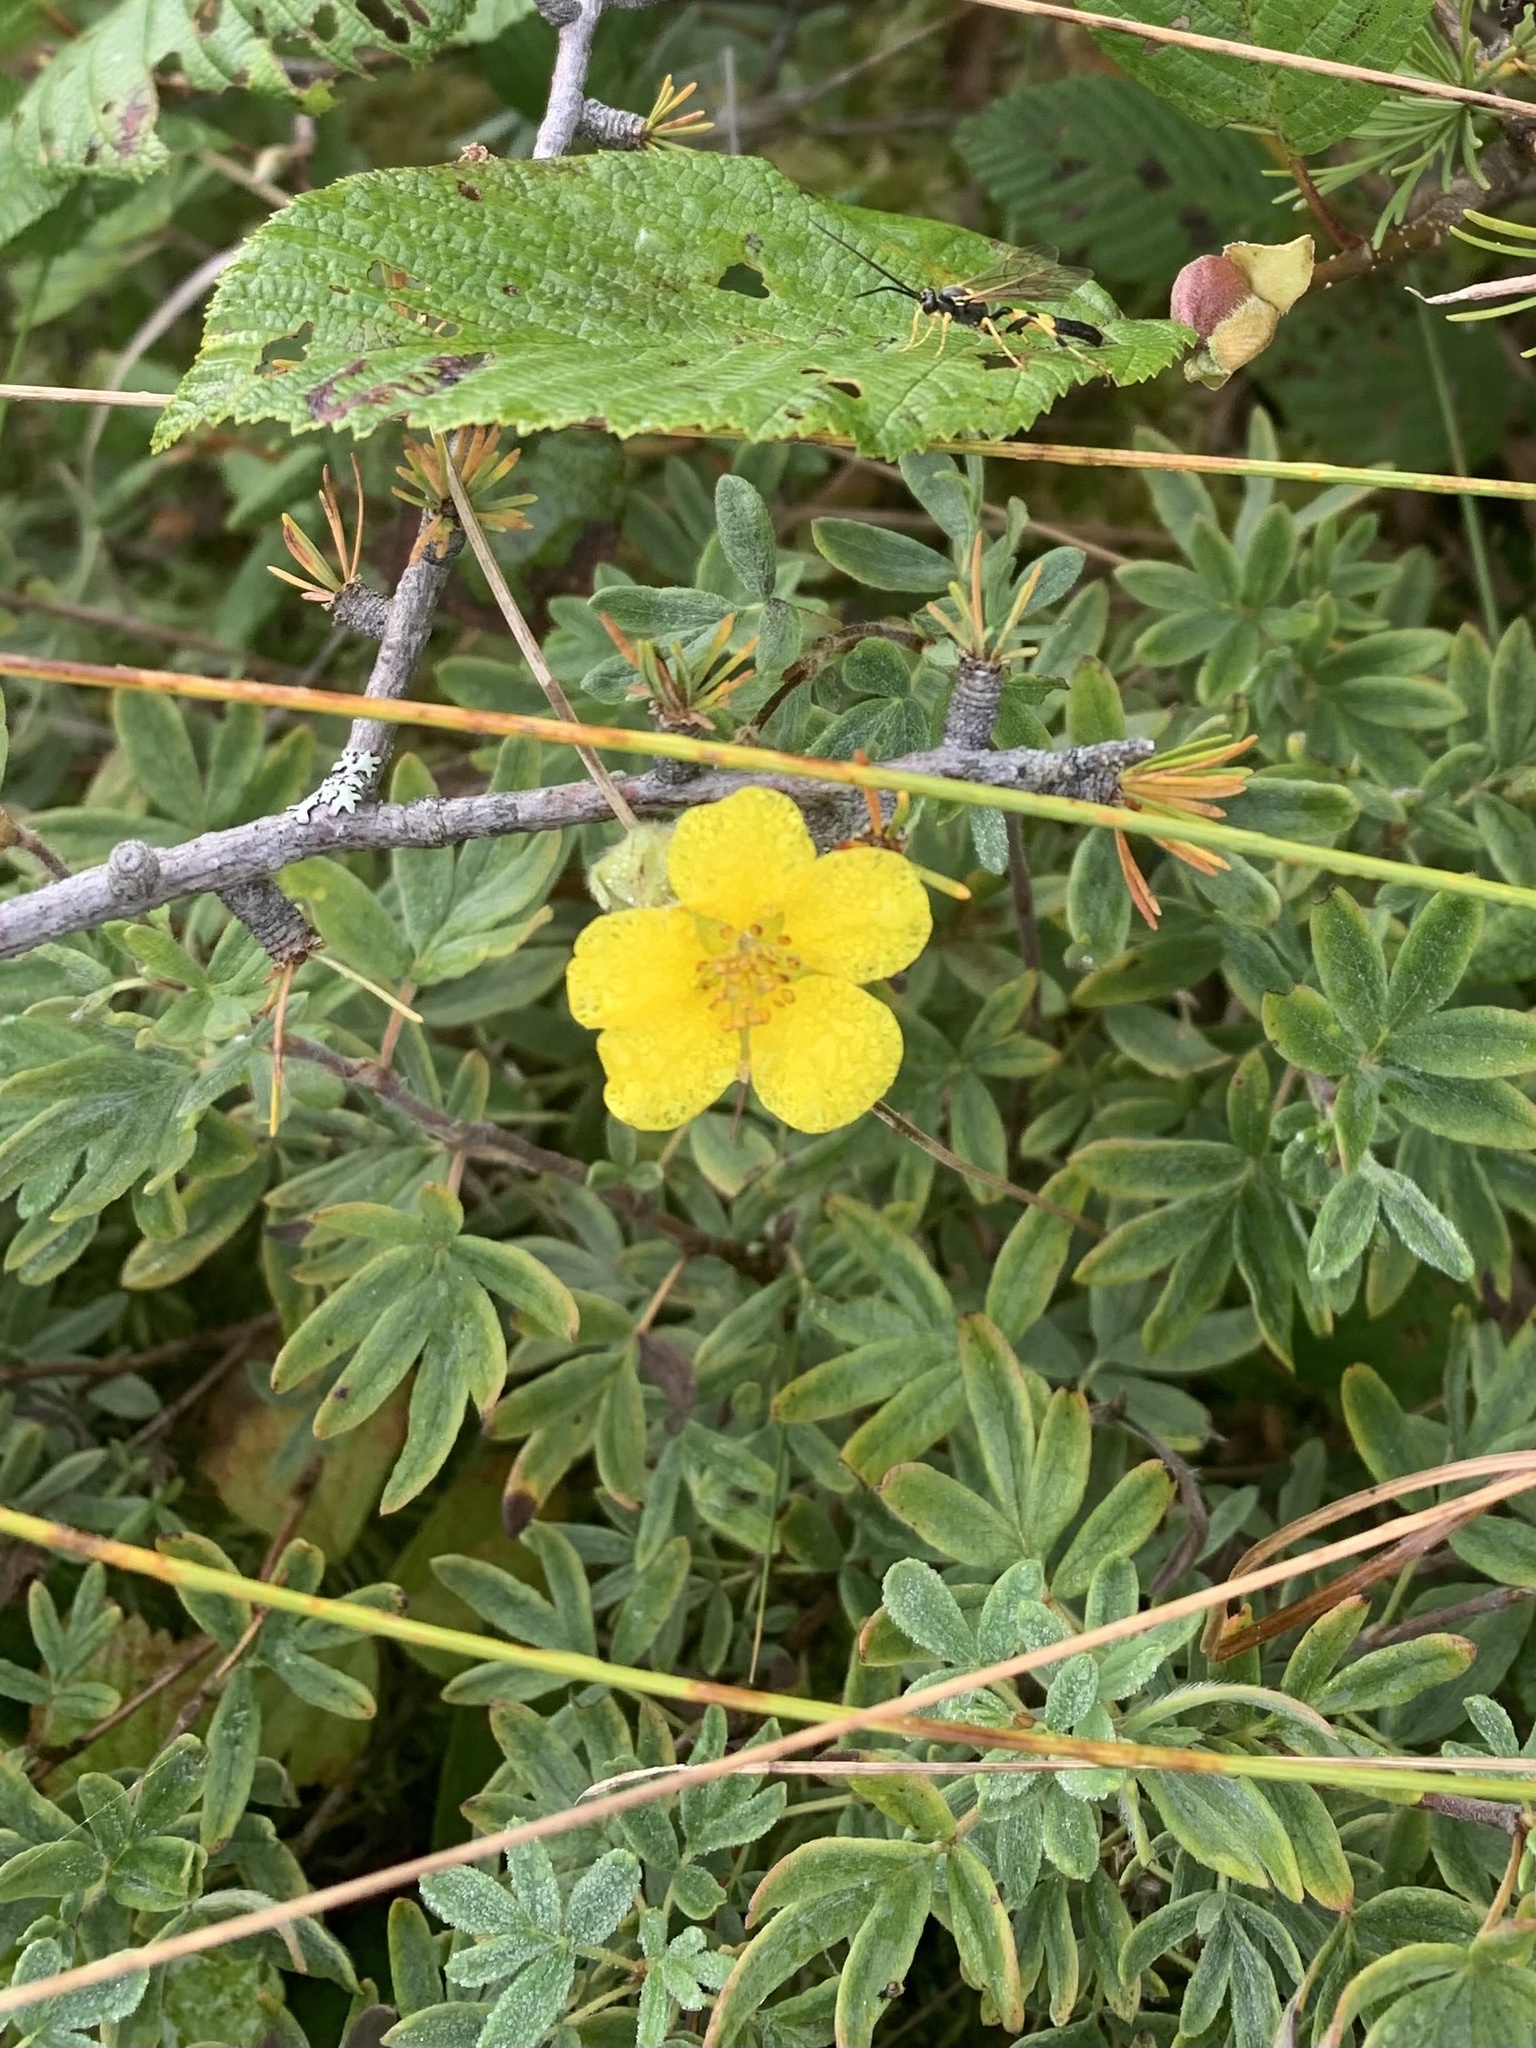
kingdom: Plantae
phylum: Tracheophyta
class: Magnoliopsida
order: Rosales
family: Rosaceae
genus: Dasiphora
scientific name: Dasiphora fruticosa
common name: Shrubby cinquefoil
